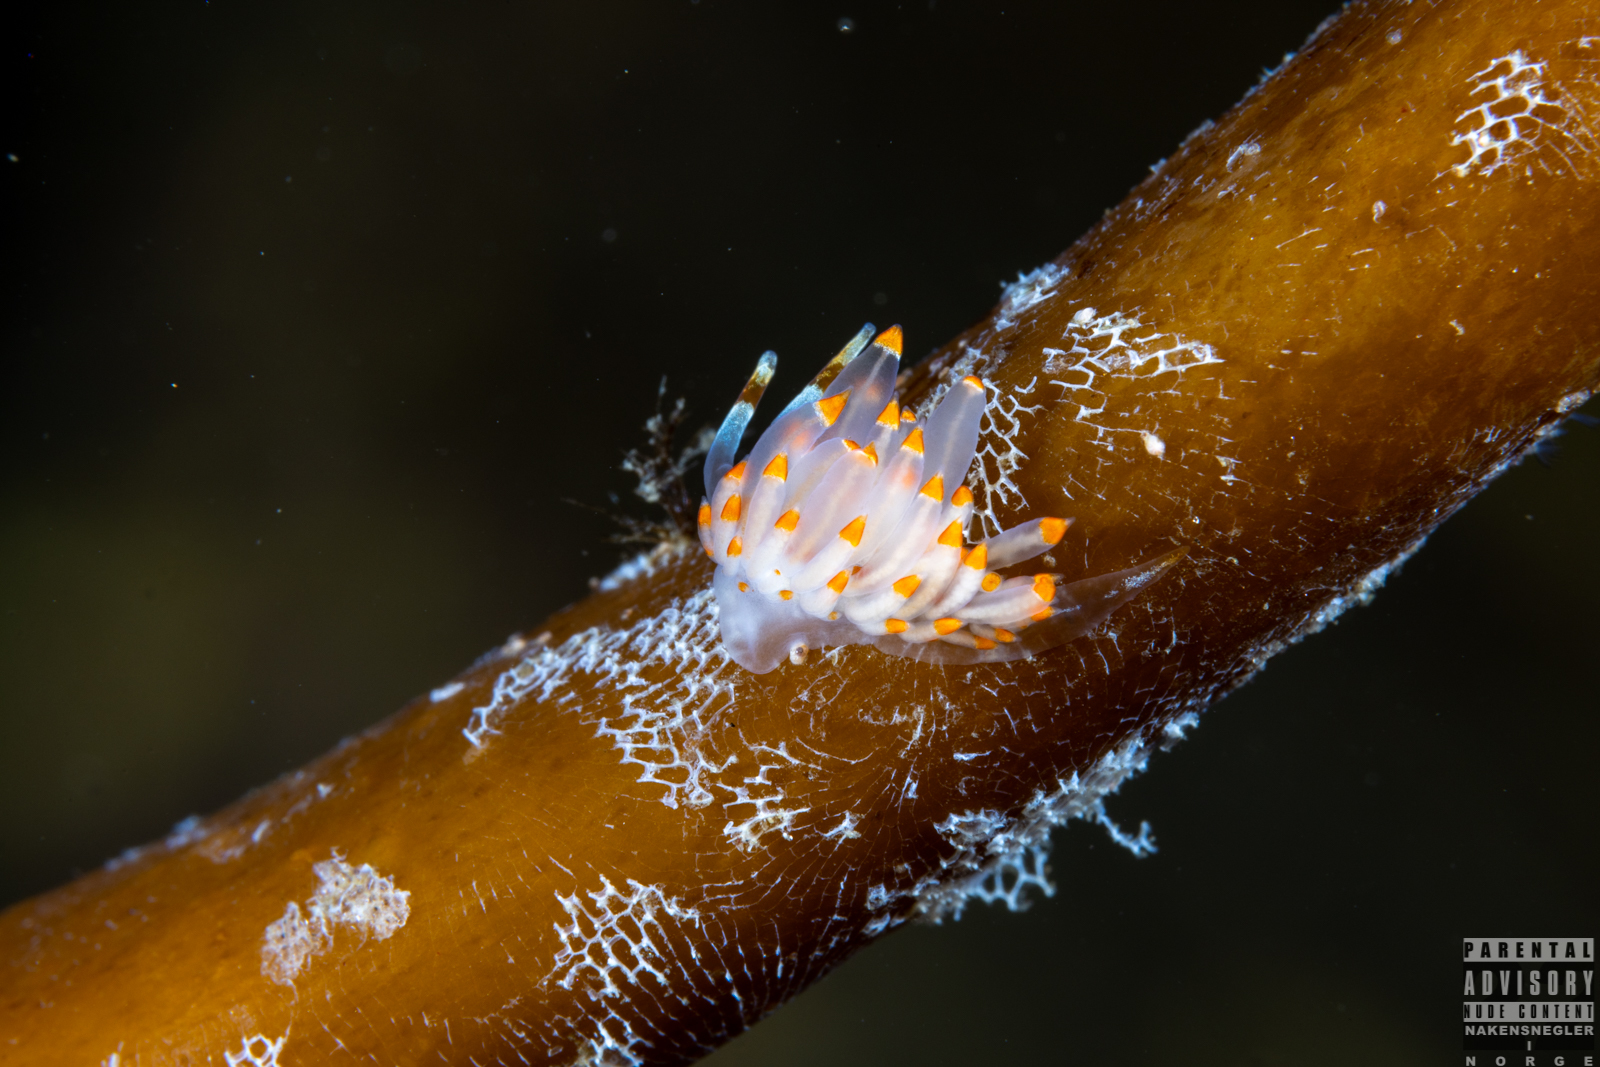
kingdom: Animalia
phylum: Mollusca
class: Gastropoda
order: Nudibranchia
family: Eubranchidae
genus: Amphorina
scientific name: Amphorina farrani
